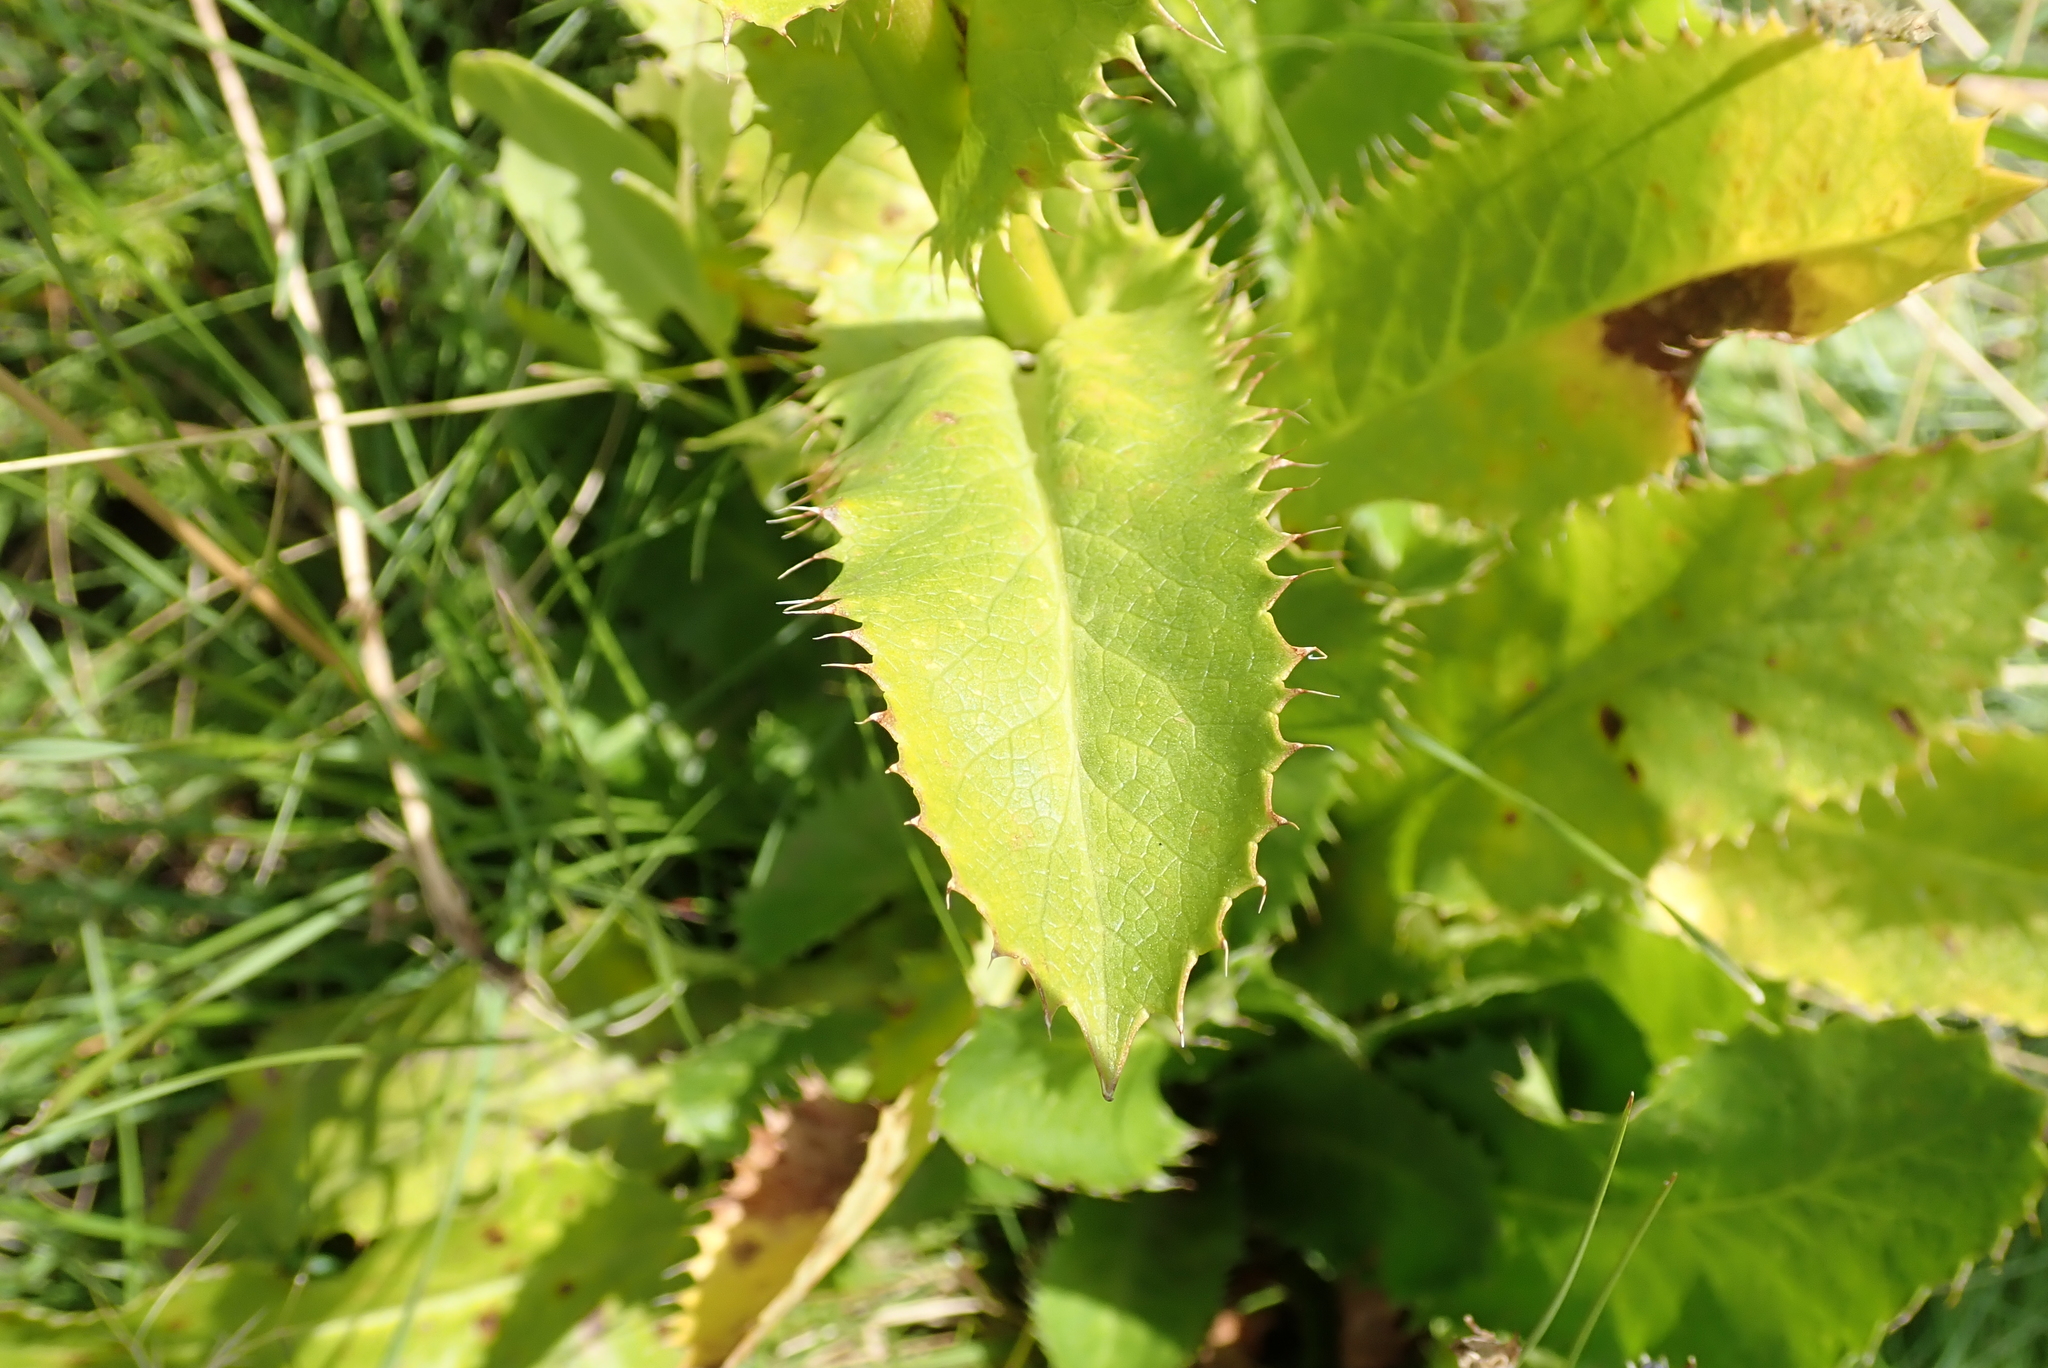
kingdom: Plantae
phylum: Tracheophyta
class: Magnoliopsida
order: Apiales
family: Apiaceae
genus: Alepidea
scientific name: Alepidea amatymbica
